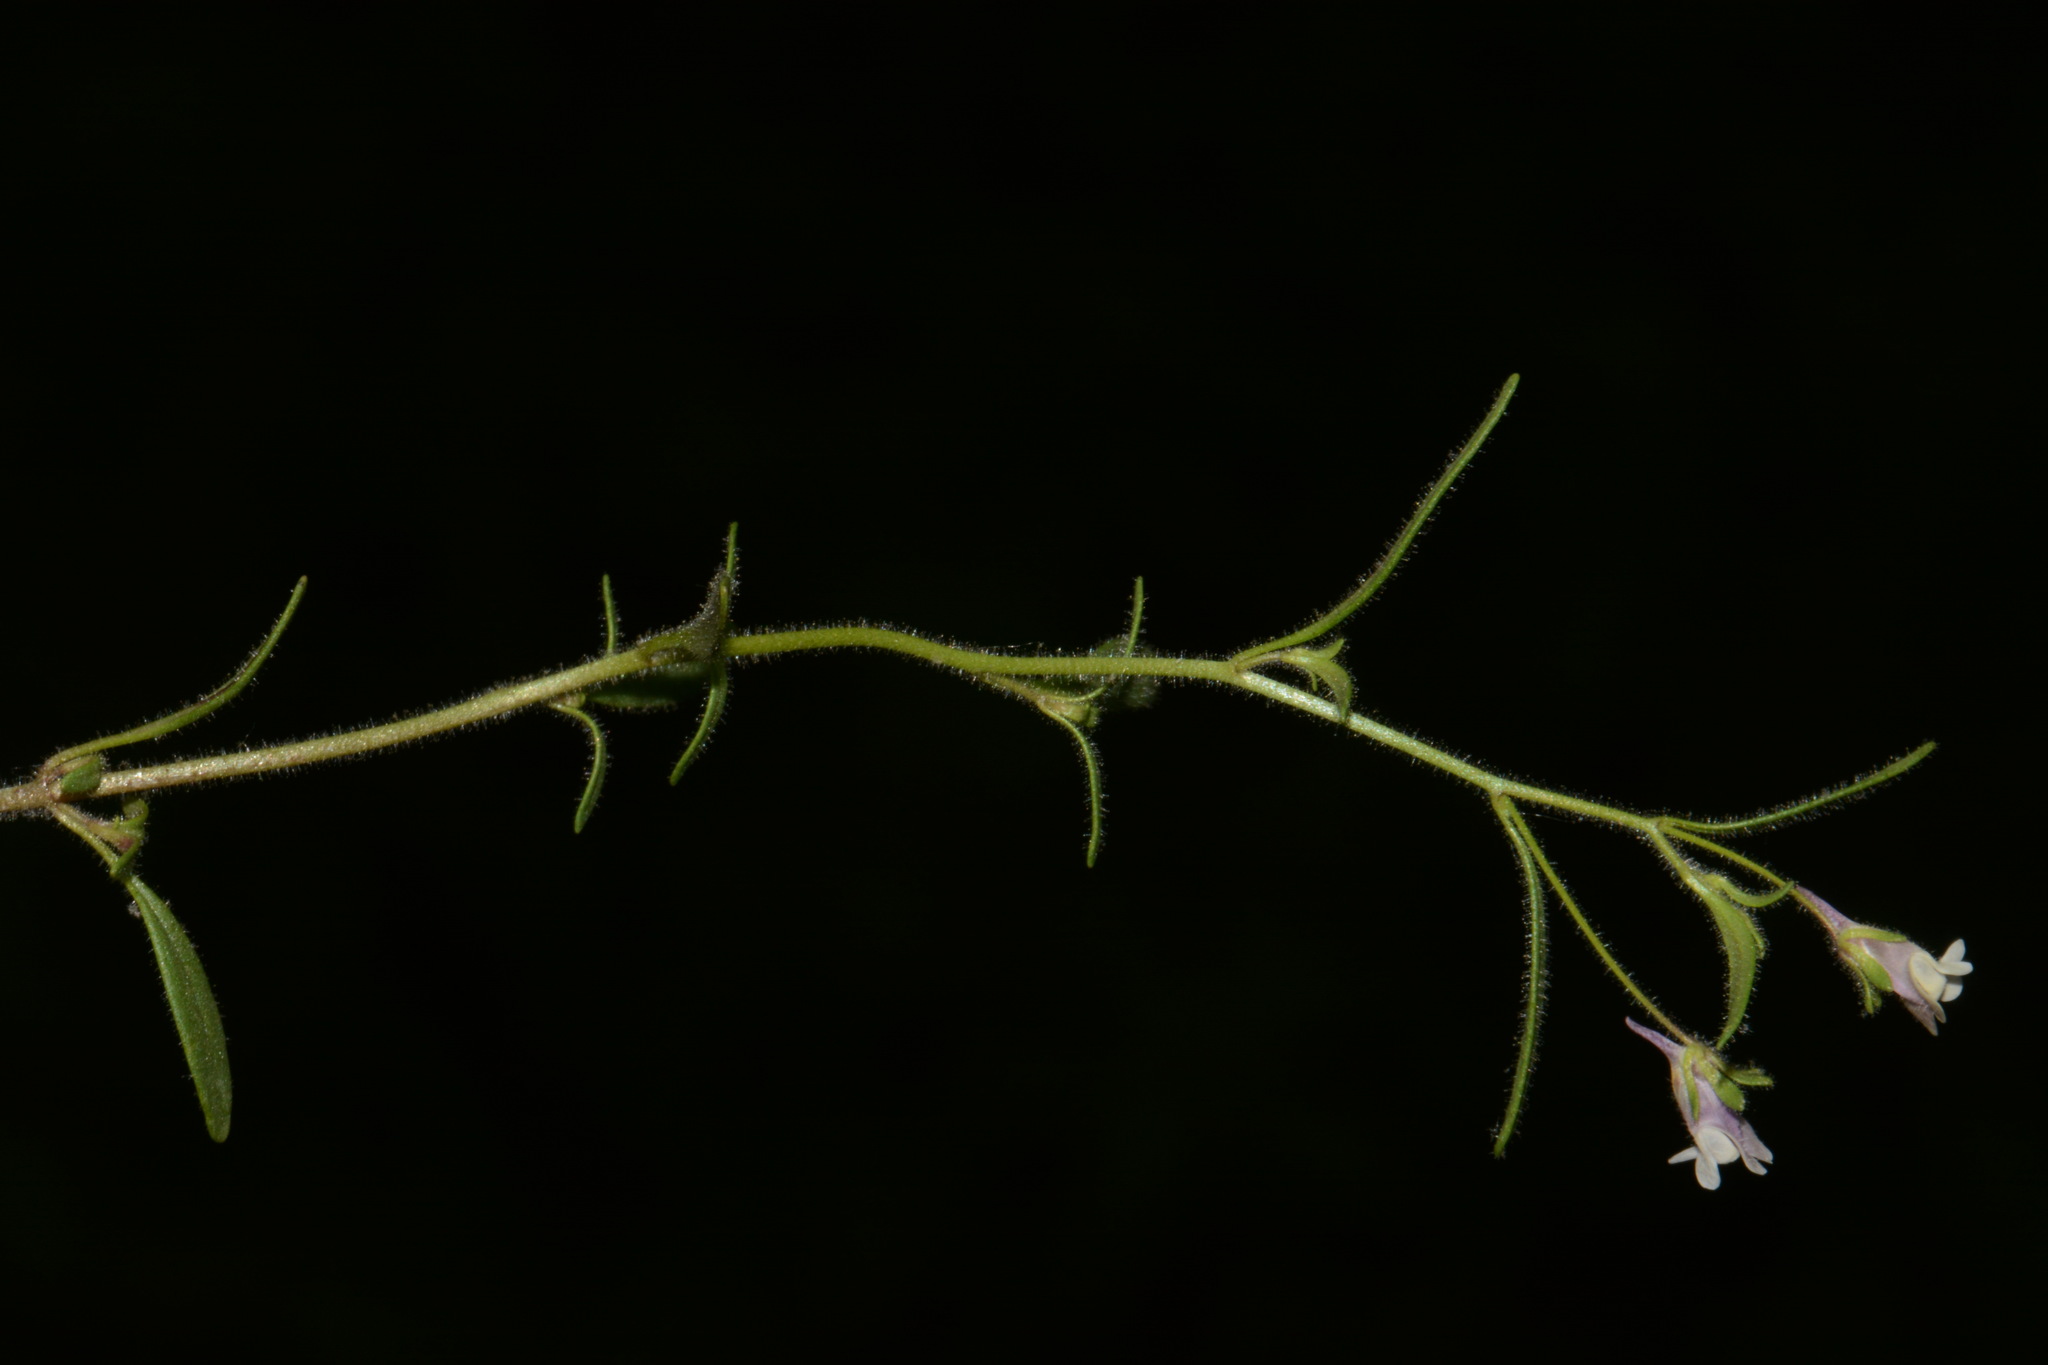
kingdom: Plantae
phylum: Tracheophyta
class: Magnoliopsida
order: Lamiales
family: Plantaginaceae
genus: Chaenorhinum
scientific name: Chaenorhinum minus
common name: Dwarf snapdragon
